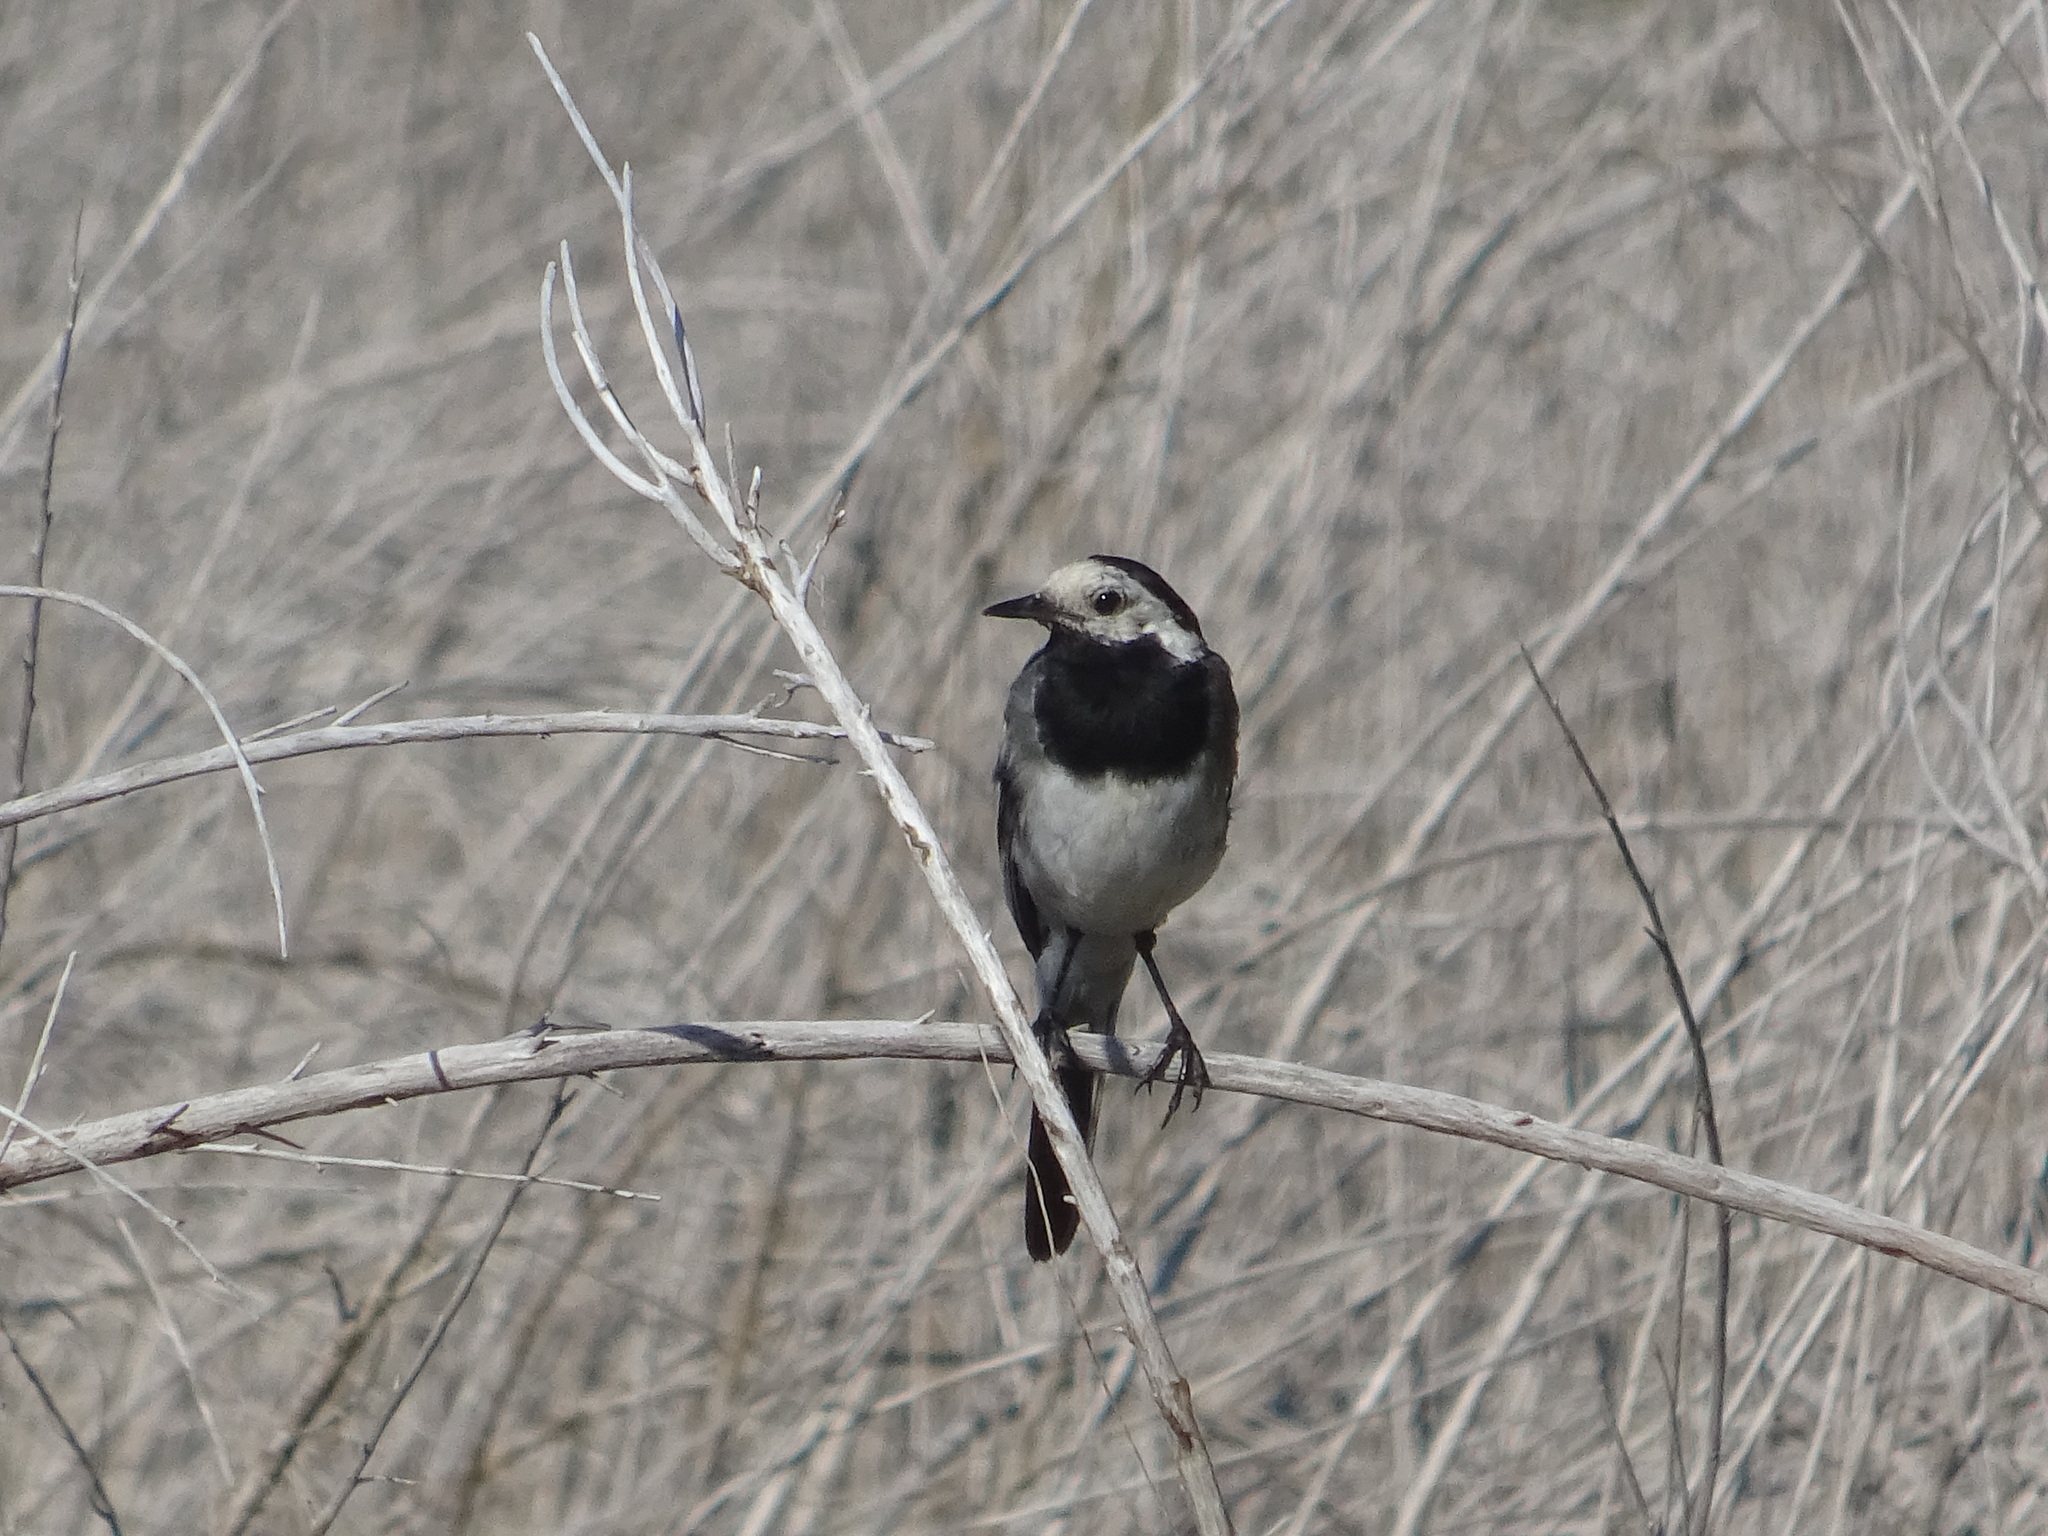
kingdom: Animalia
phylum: Chordata
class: Aves
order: Passeriformes
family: Motacillidae
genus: Motacilla
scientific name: Motacilla alba
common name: White wagtail
